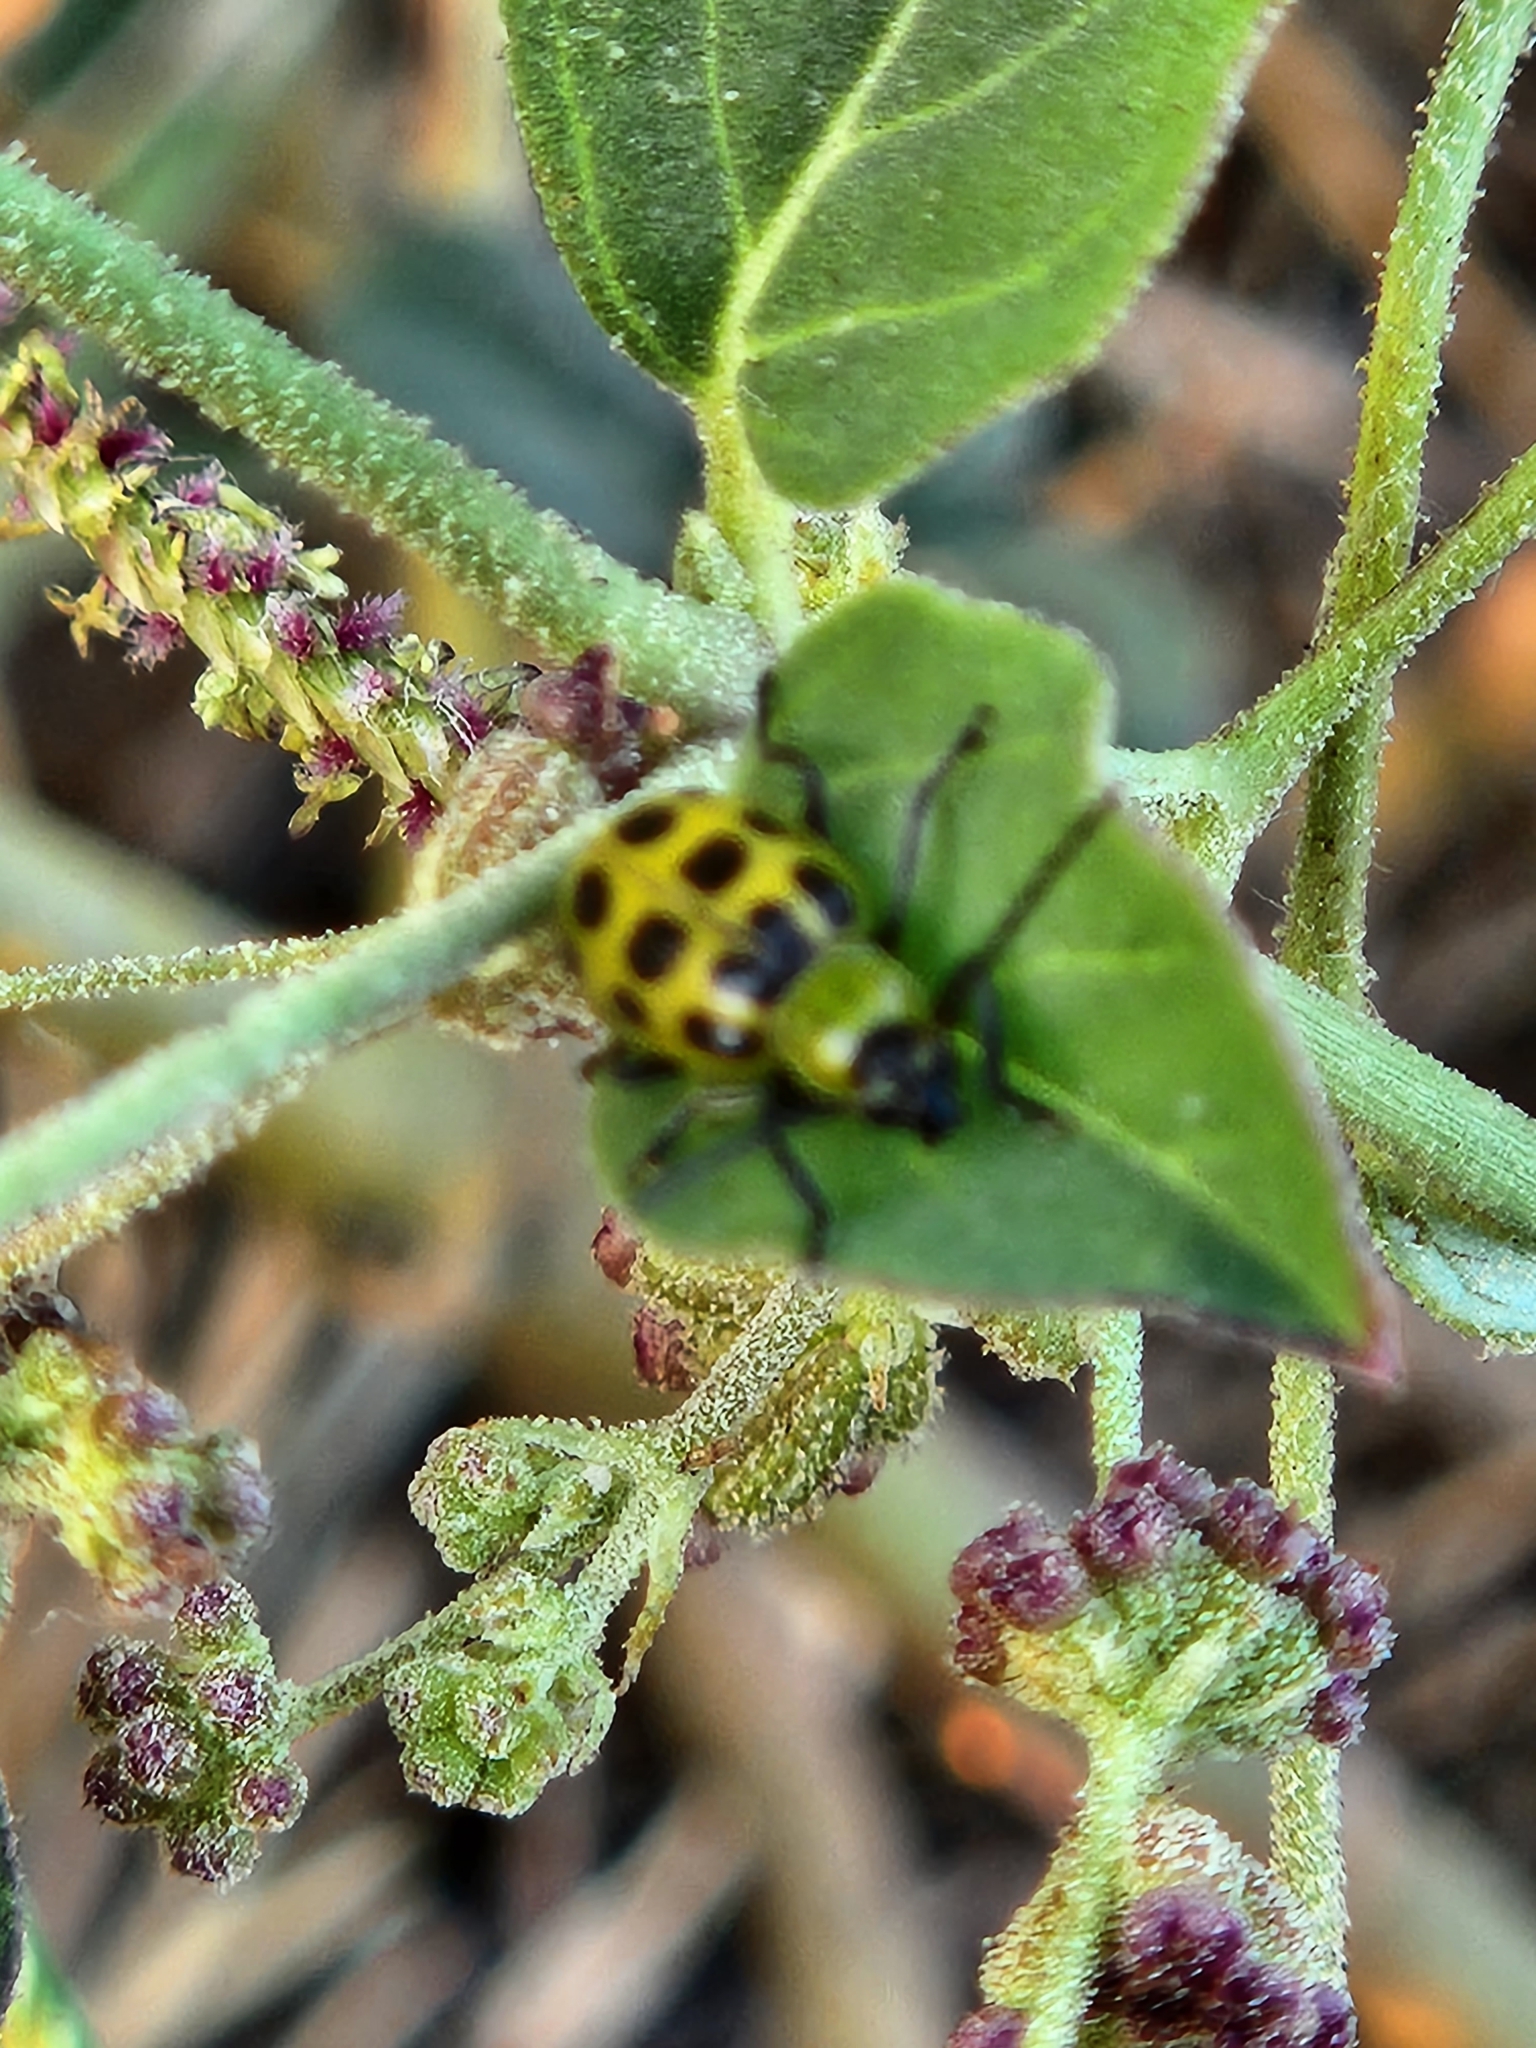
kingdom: Animalia
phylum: Arthropoda
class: Insecta
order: Coleoptera
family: Chrysomelidae
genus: Diabrotica
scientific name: Diabrotica undecimpunctata
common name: Spotted cucumber beetle
